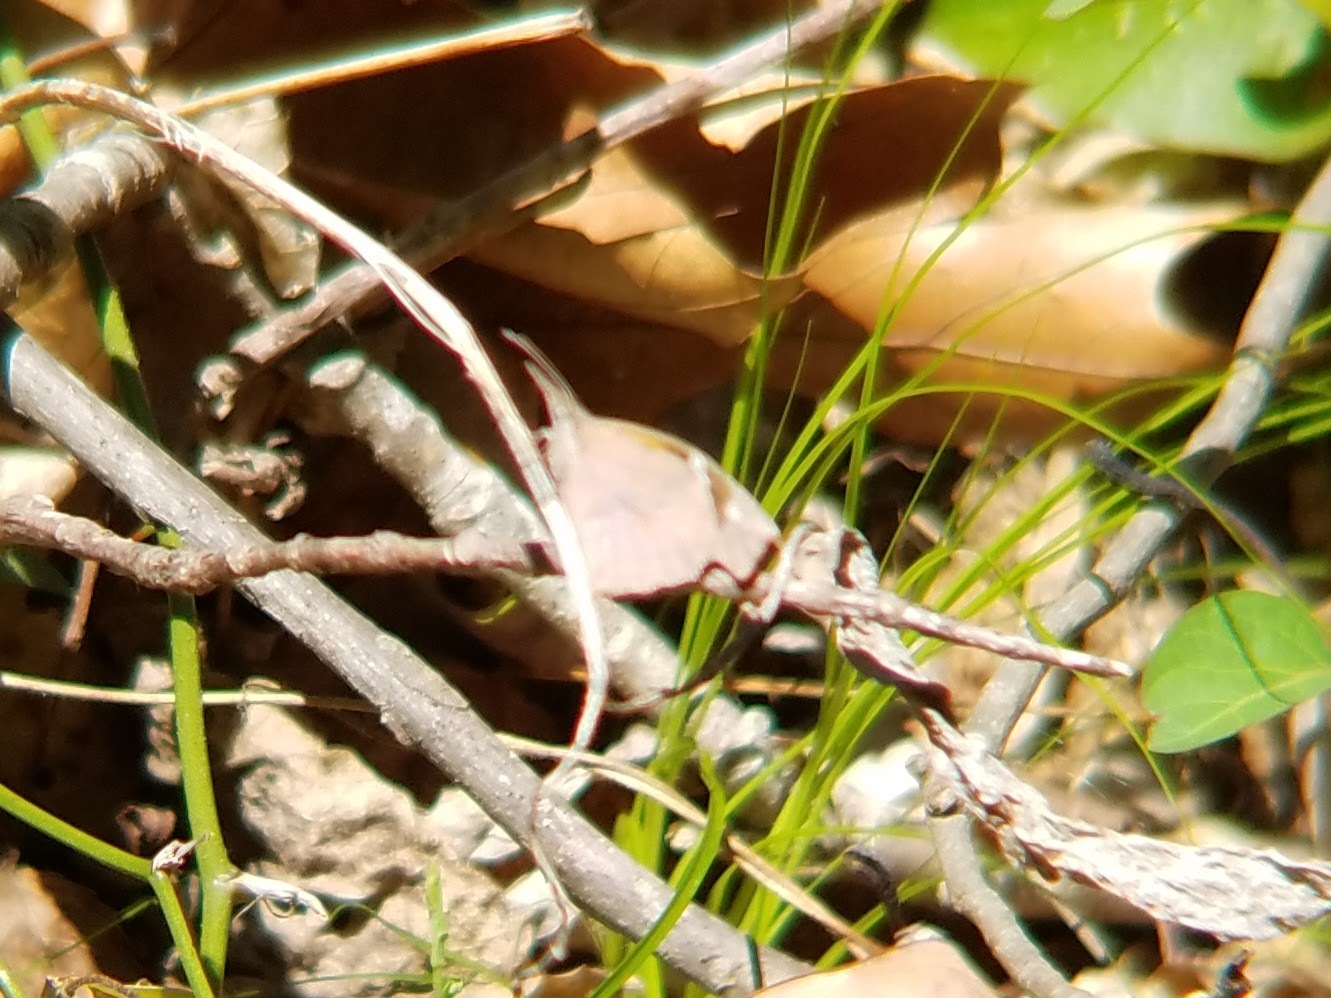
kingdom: Animalia
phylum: Arthropoda
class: Insecta
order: Lepidoptera
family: Nymphalidae
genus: Libytheana
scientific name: Libytheana carinenta
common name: American snout
